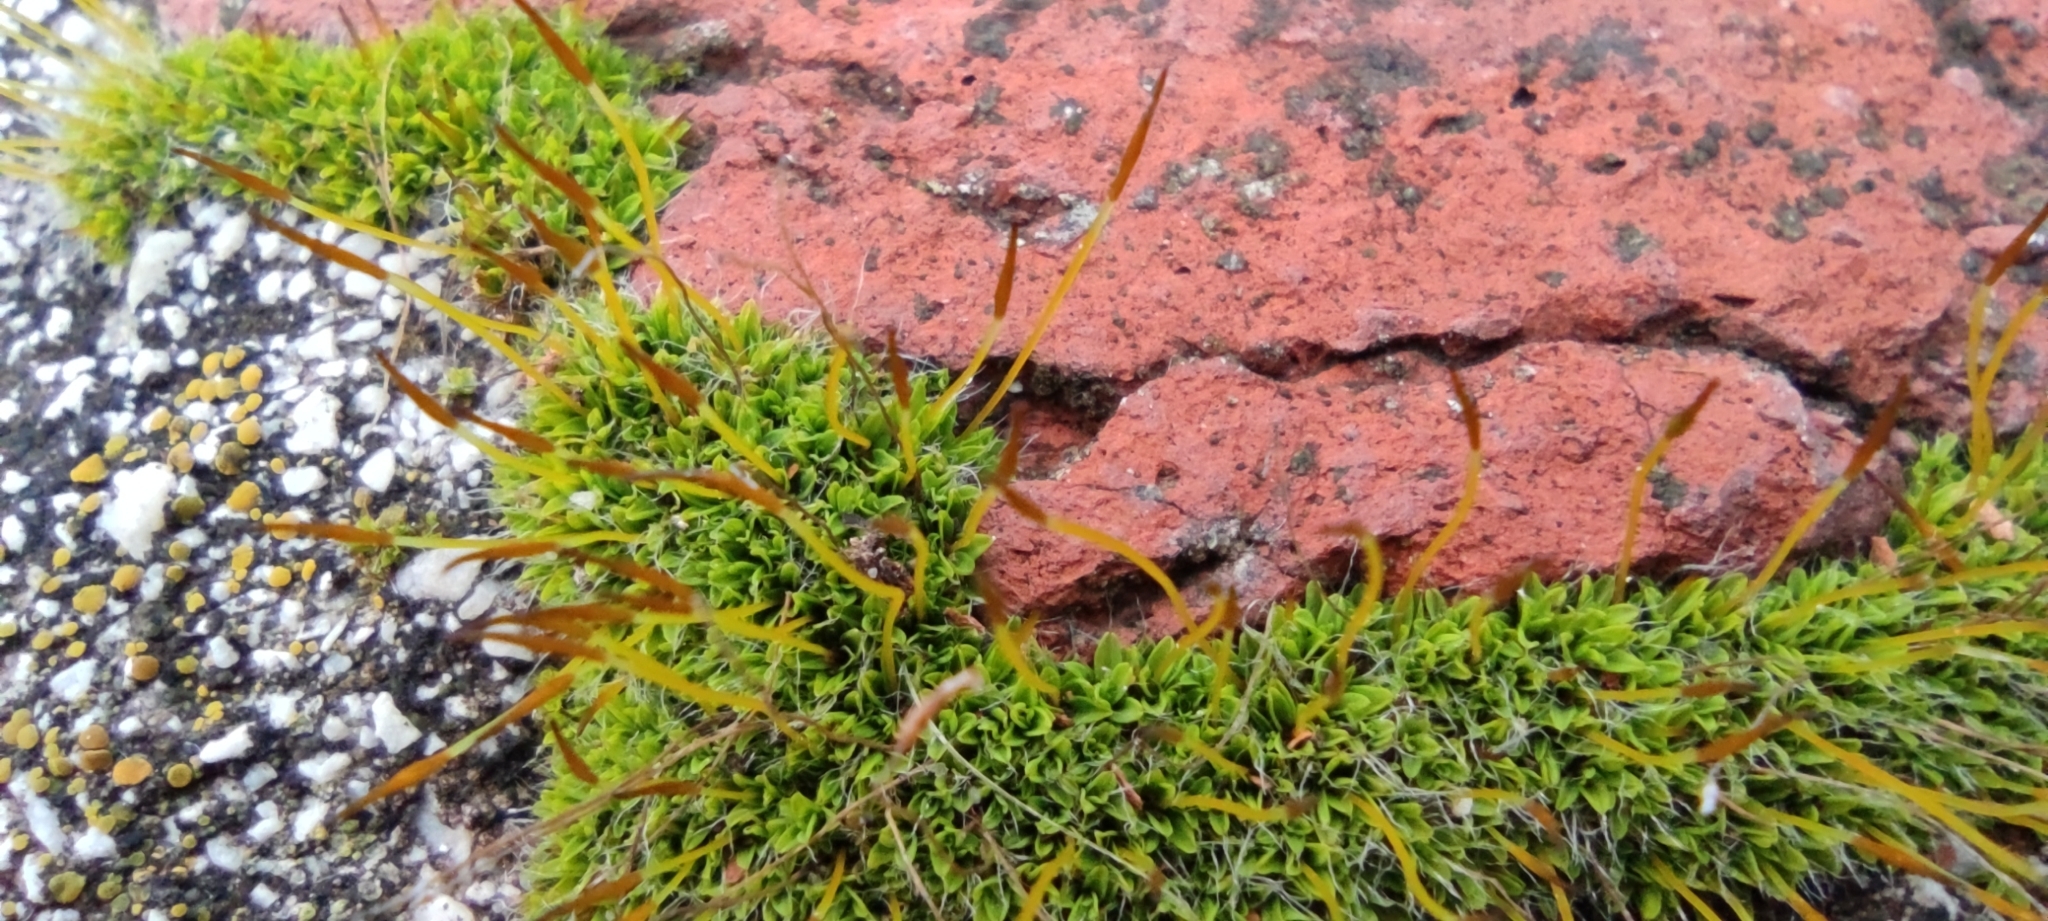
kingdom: Plantae
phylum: Bryophyta
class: Bryopsida
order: Pottiales
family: Pottiaceae
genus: Tortula
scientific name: Tortula muralis
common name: Wall screw-moss
